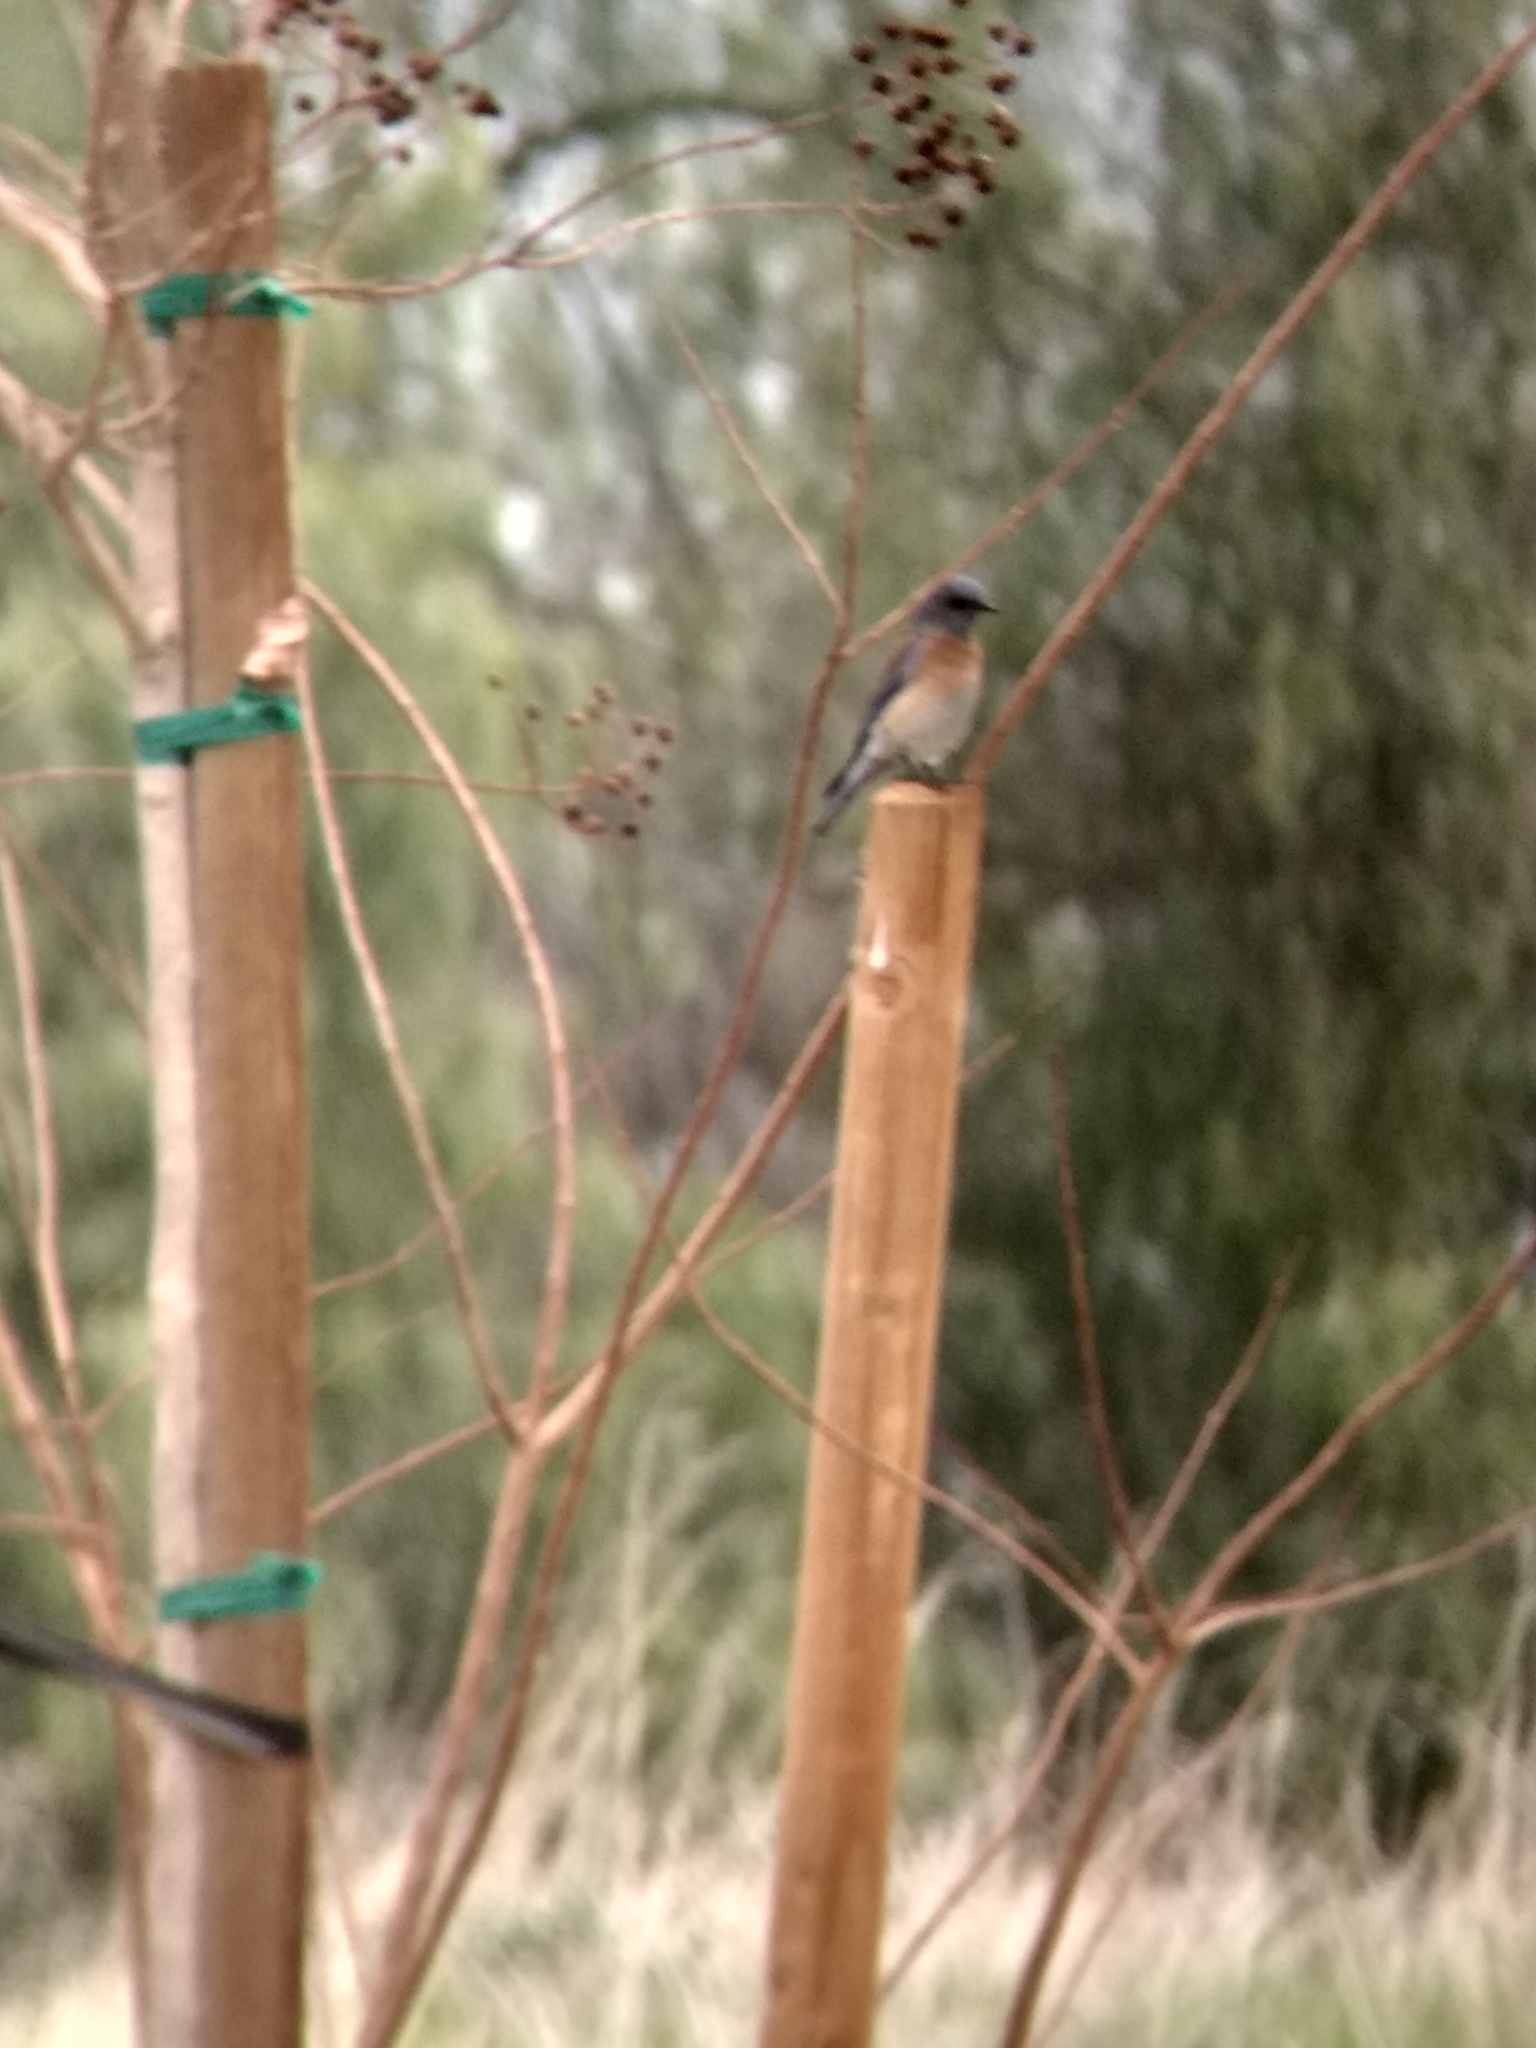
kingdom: Animalia
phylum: Chordata
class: Aves
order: Passeriformes
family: Turdidae
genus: Sialia
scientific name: Sialia mexicana
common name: Western bluebird
